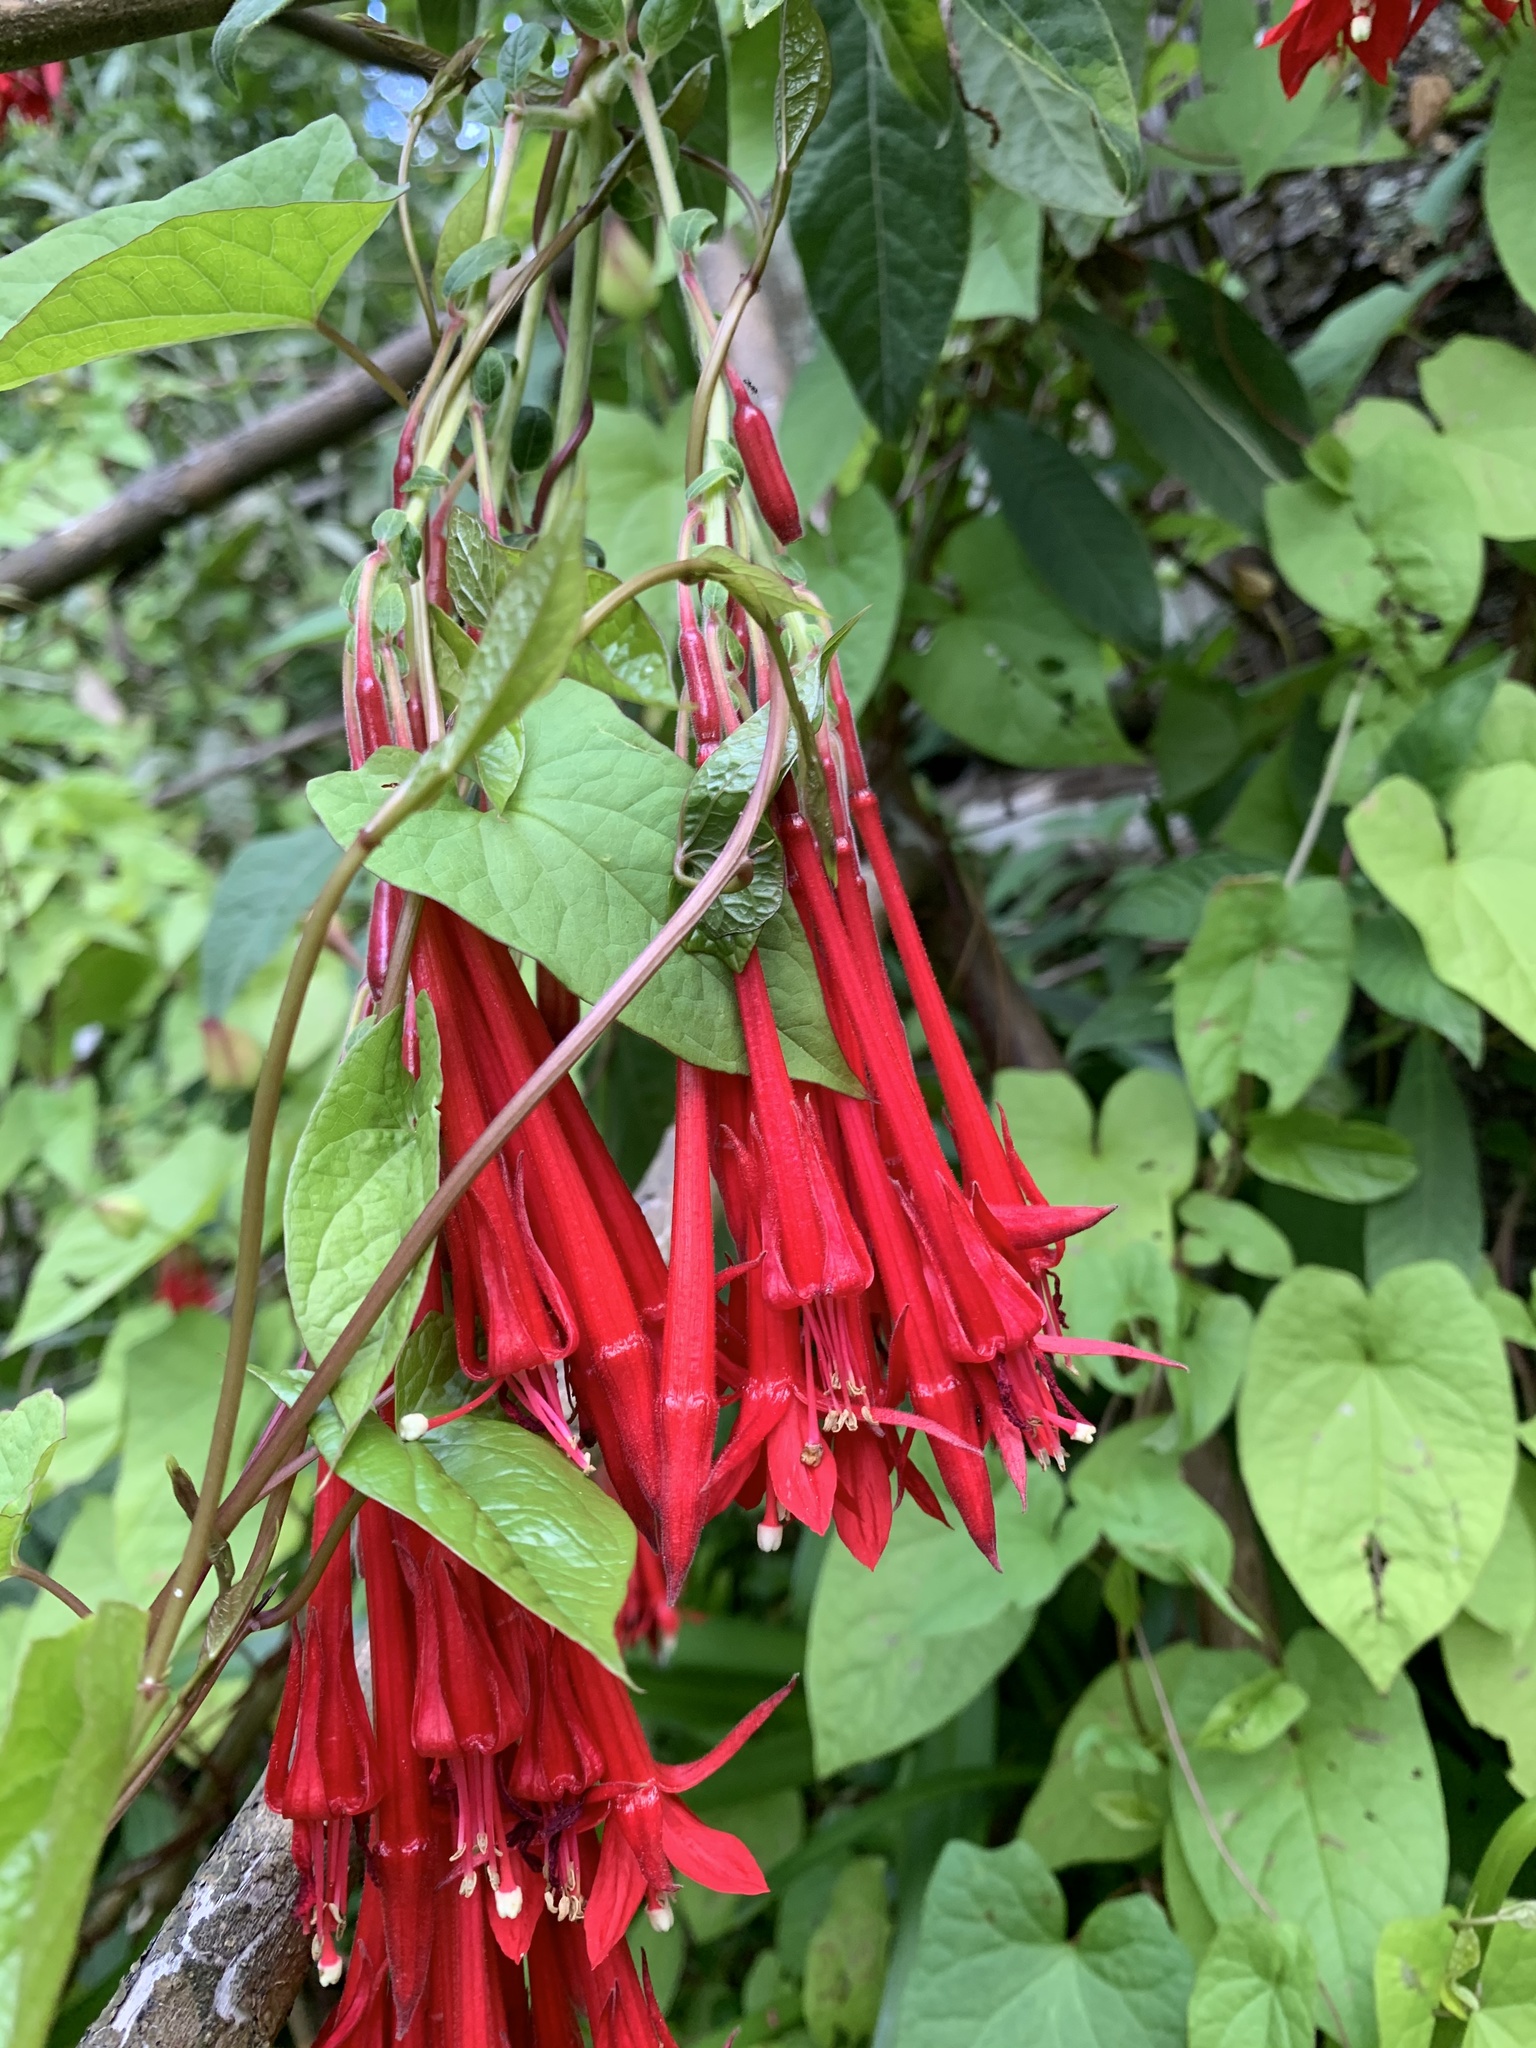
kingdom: Plantae
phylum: Tracheophyta
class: Magnoliopsida
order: Myrtales
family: Onagraceae
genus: Fuchsia
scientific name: Fuchsia boliviana
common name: Bolivian fuchsia
